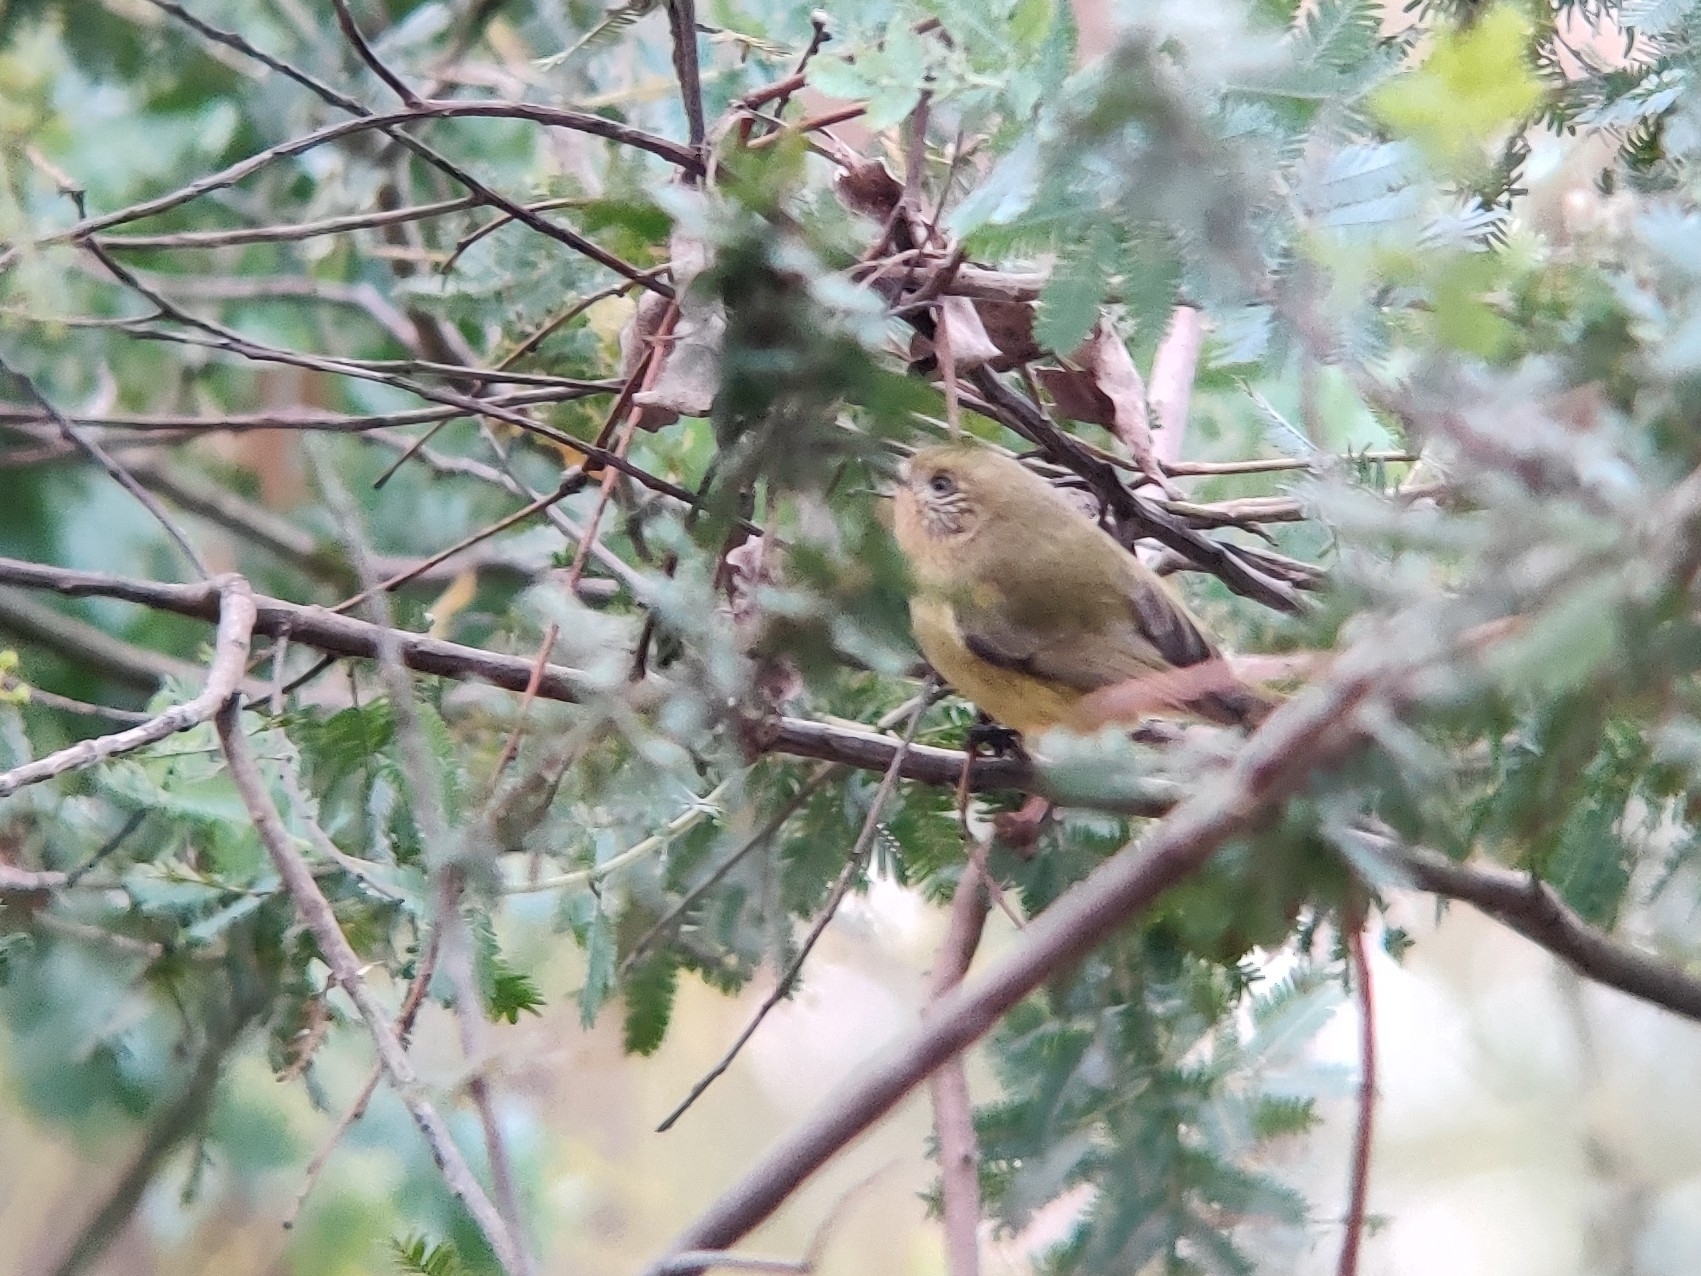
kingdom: Animalia
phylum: Chordata
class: Aves
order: Passeriformes
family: Acanthizidae
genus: Acanthiza
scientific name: Acanthiza nana
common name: Yellow thornbill
